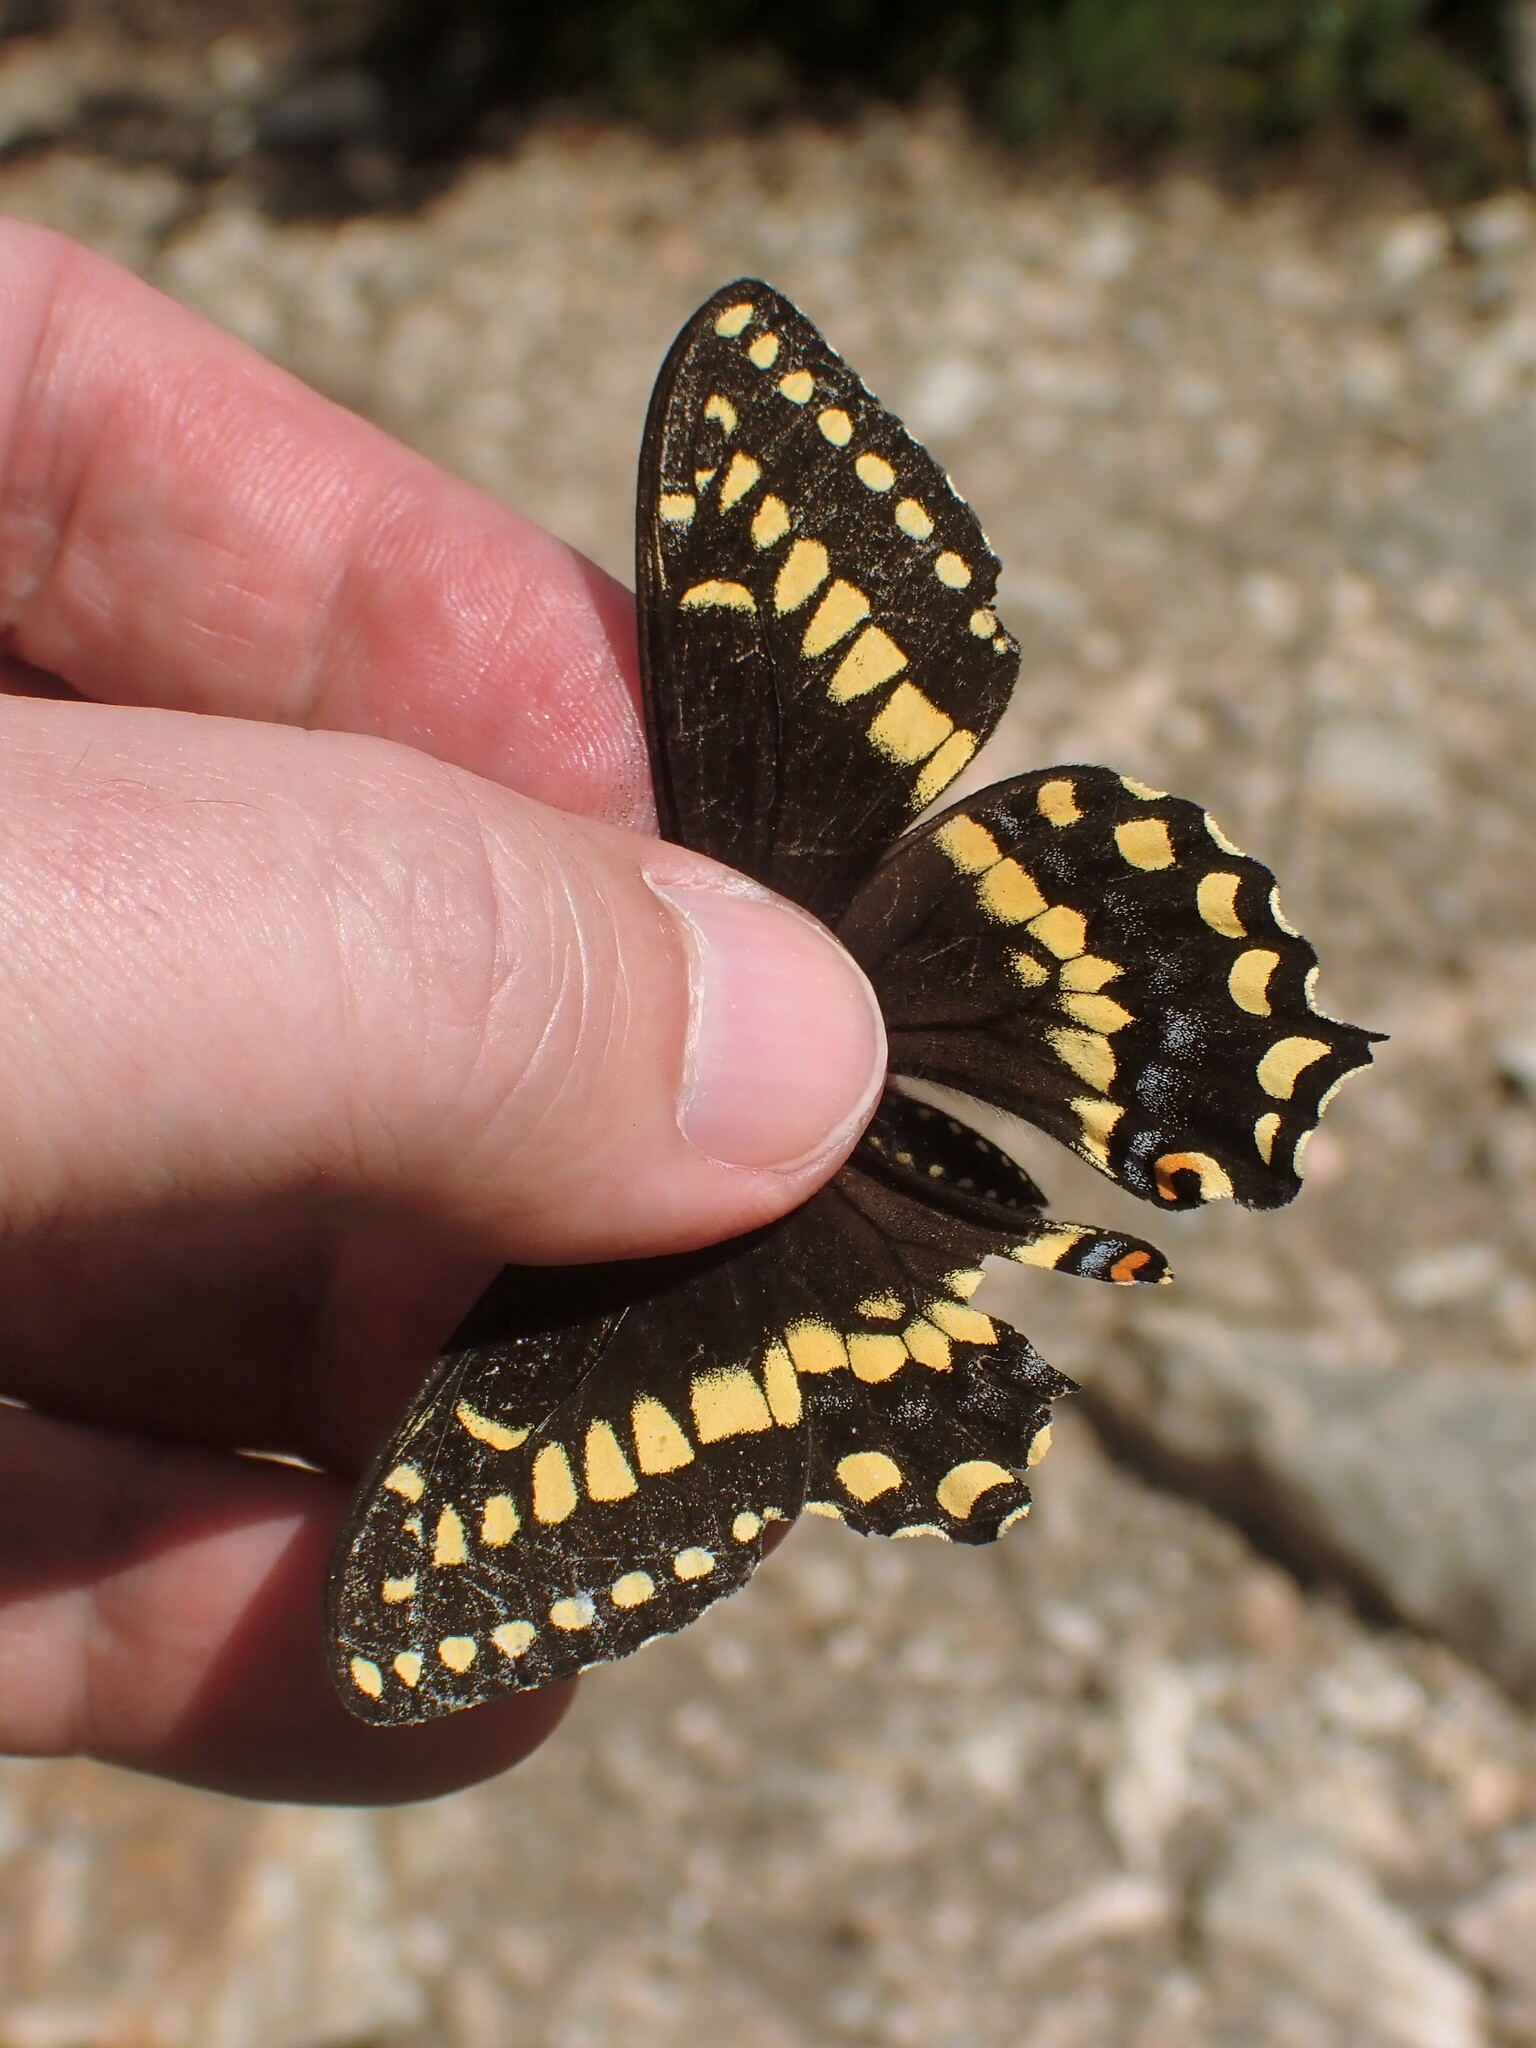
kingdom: Animalia
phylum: Arthropoda
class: Insecta
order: Lepidoptera
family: Papilionidae
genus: Papilio
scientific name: Papilio brevicauda
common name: Short tailed swallowtail
